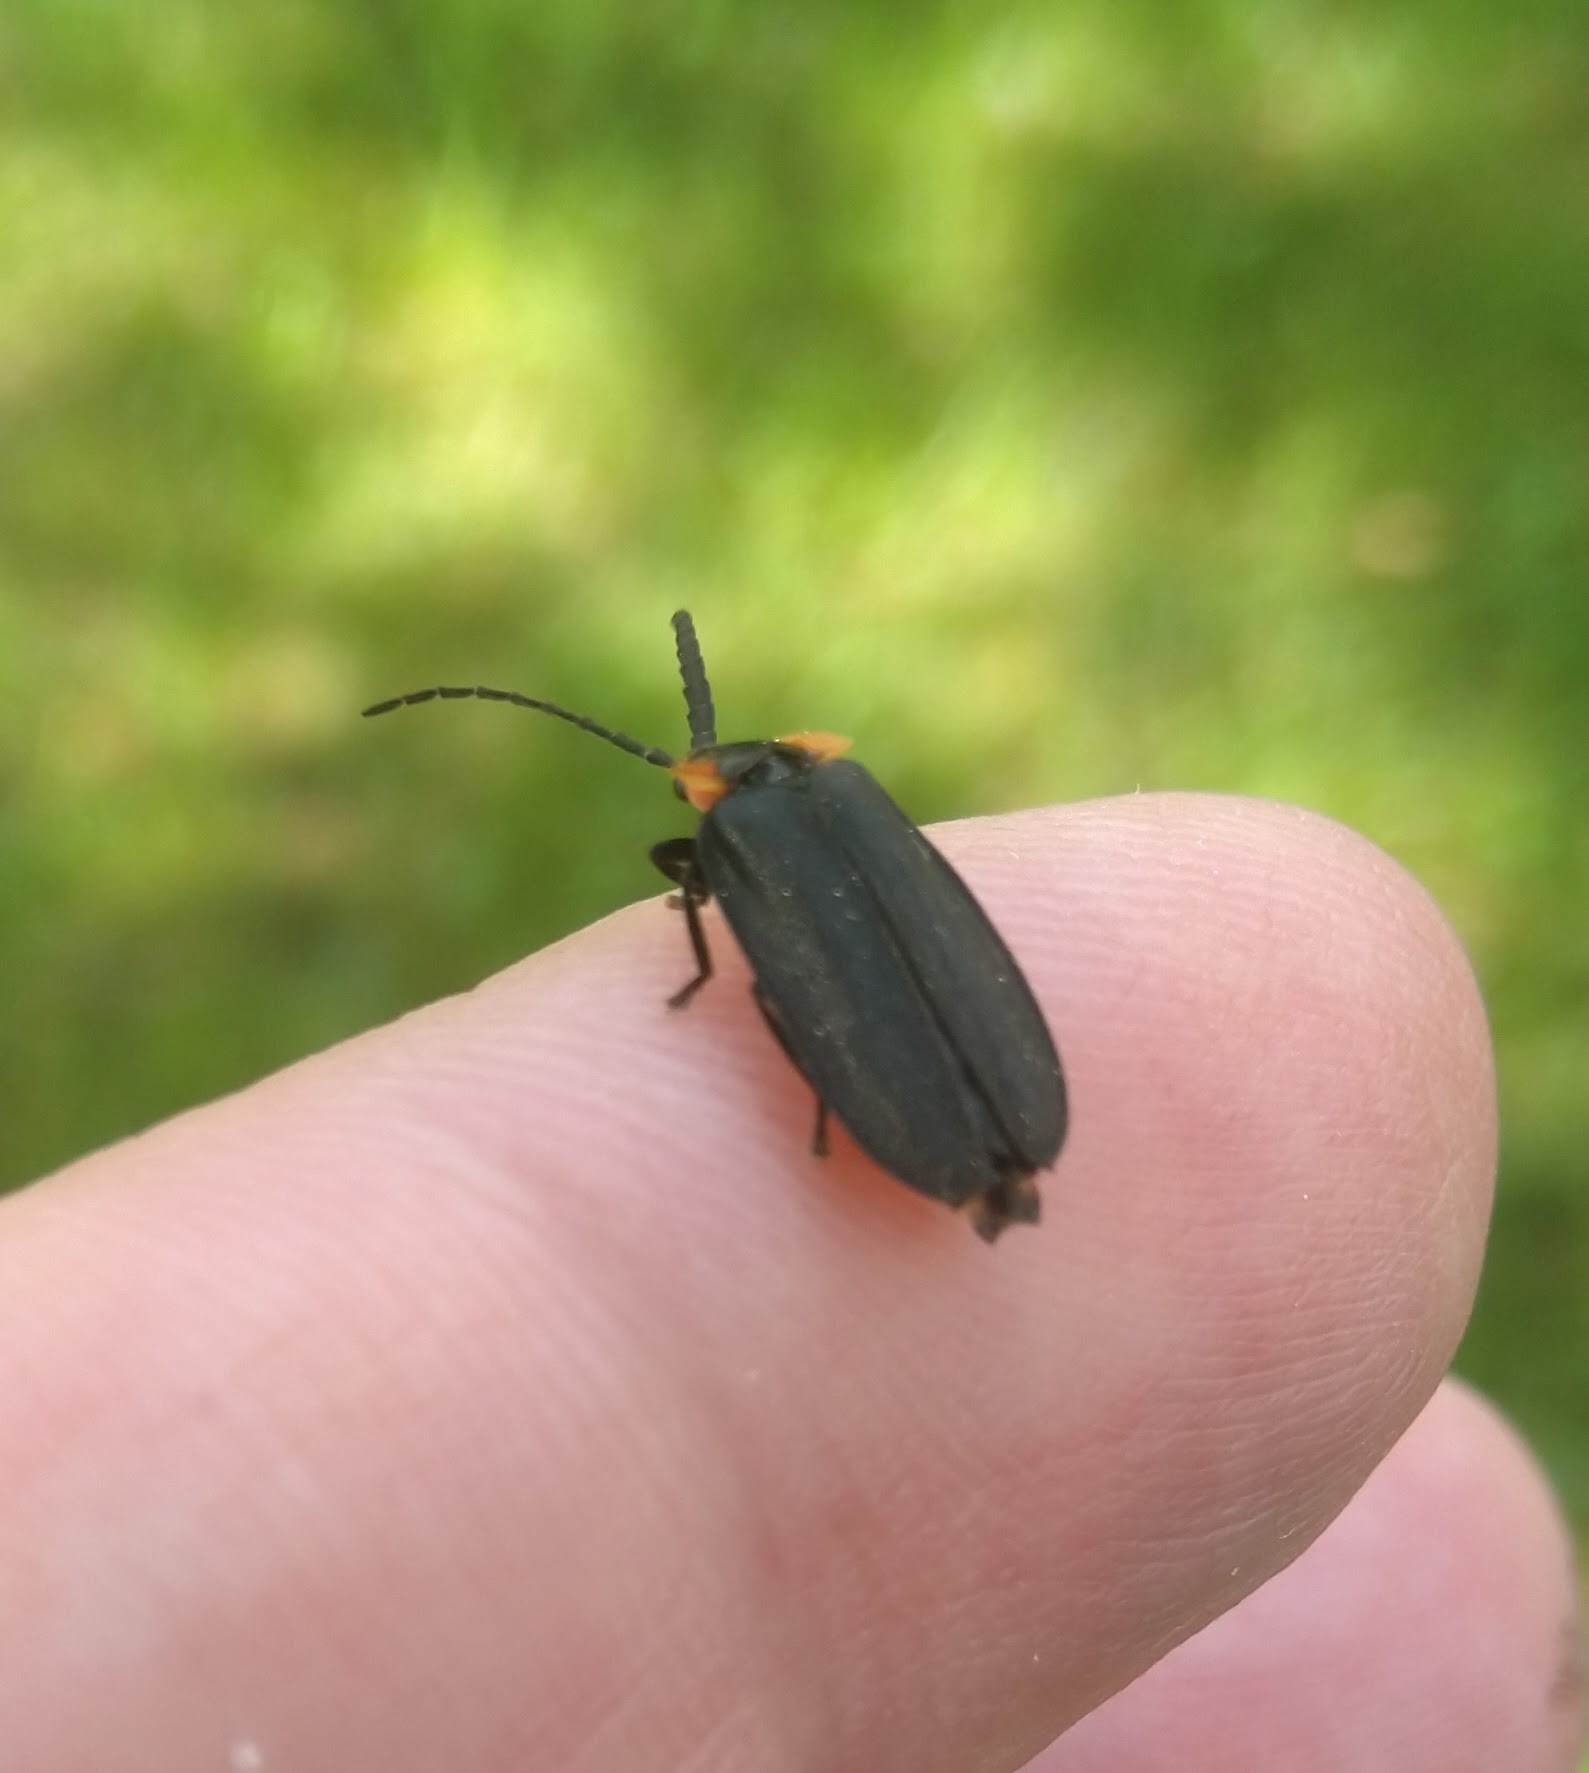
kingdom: Animalia
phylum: Arthropoda
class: Insecta
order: Coleoptera
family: Lampyridae
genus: Lucidota
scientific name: Lucidota atra
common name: Black firefly
